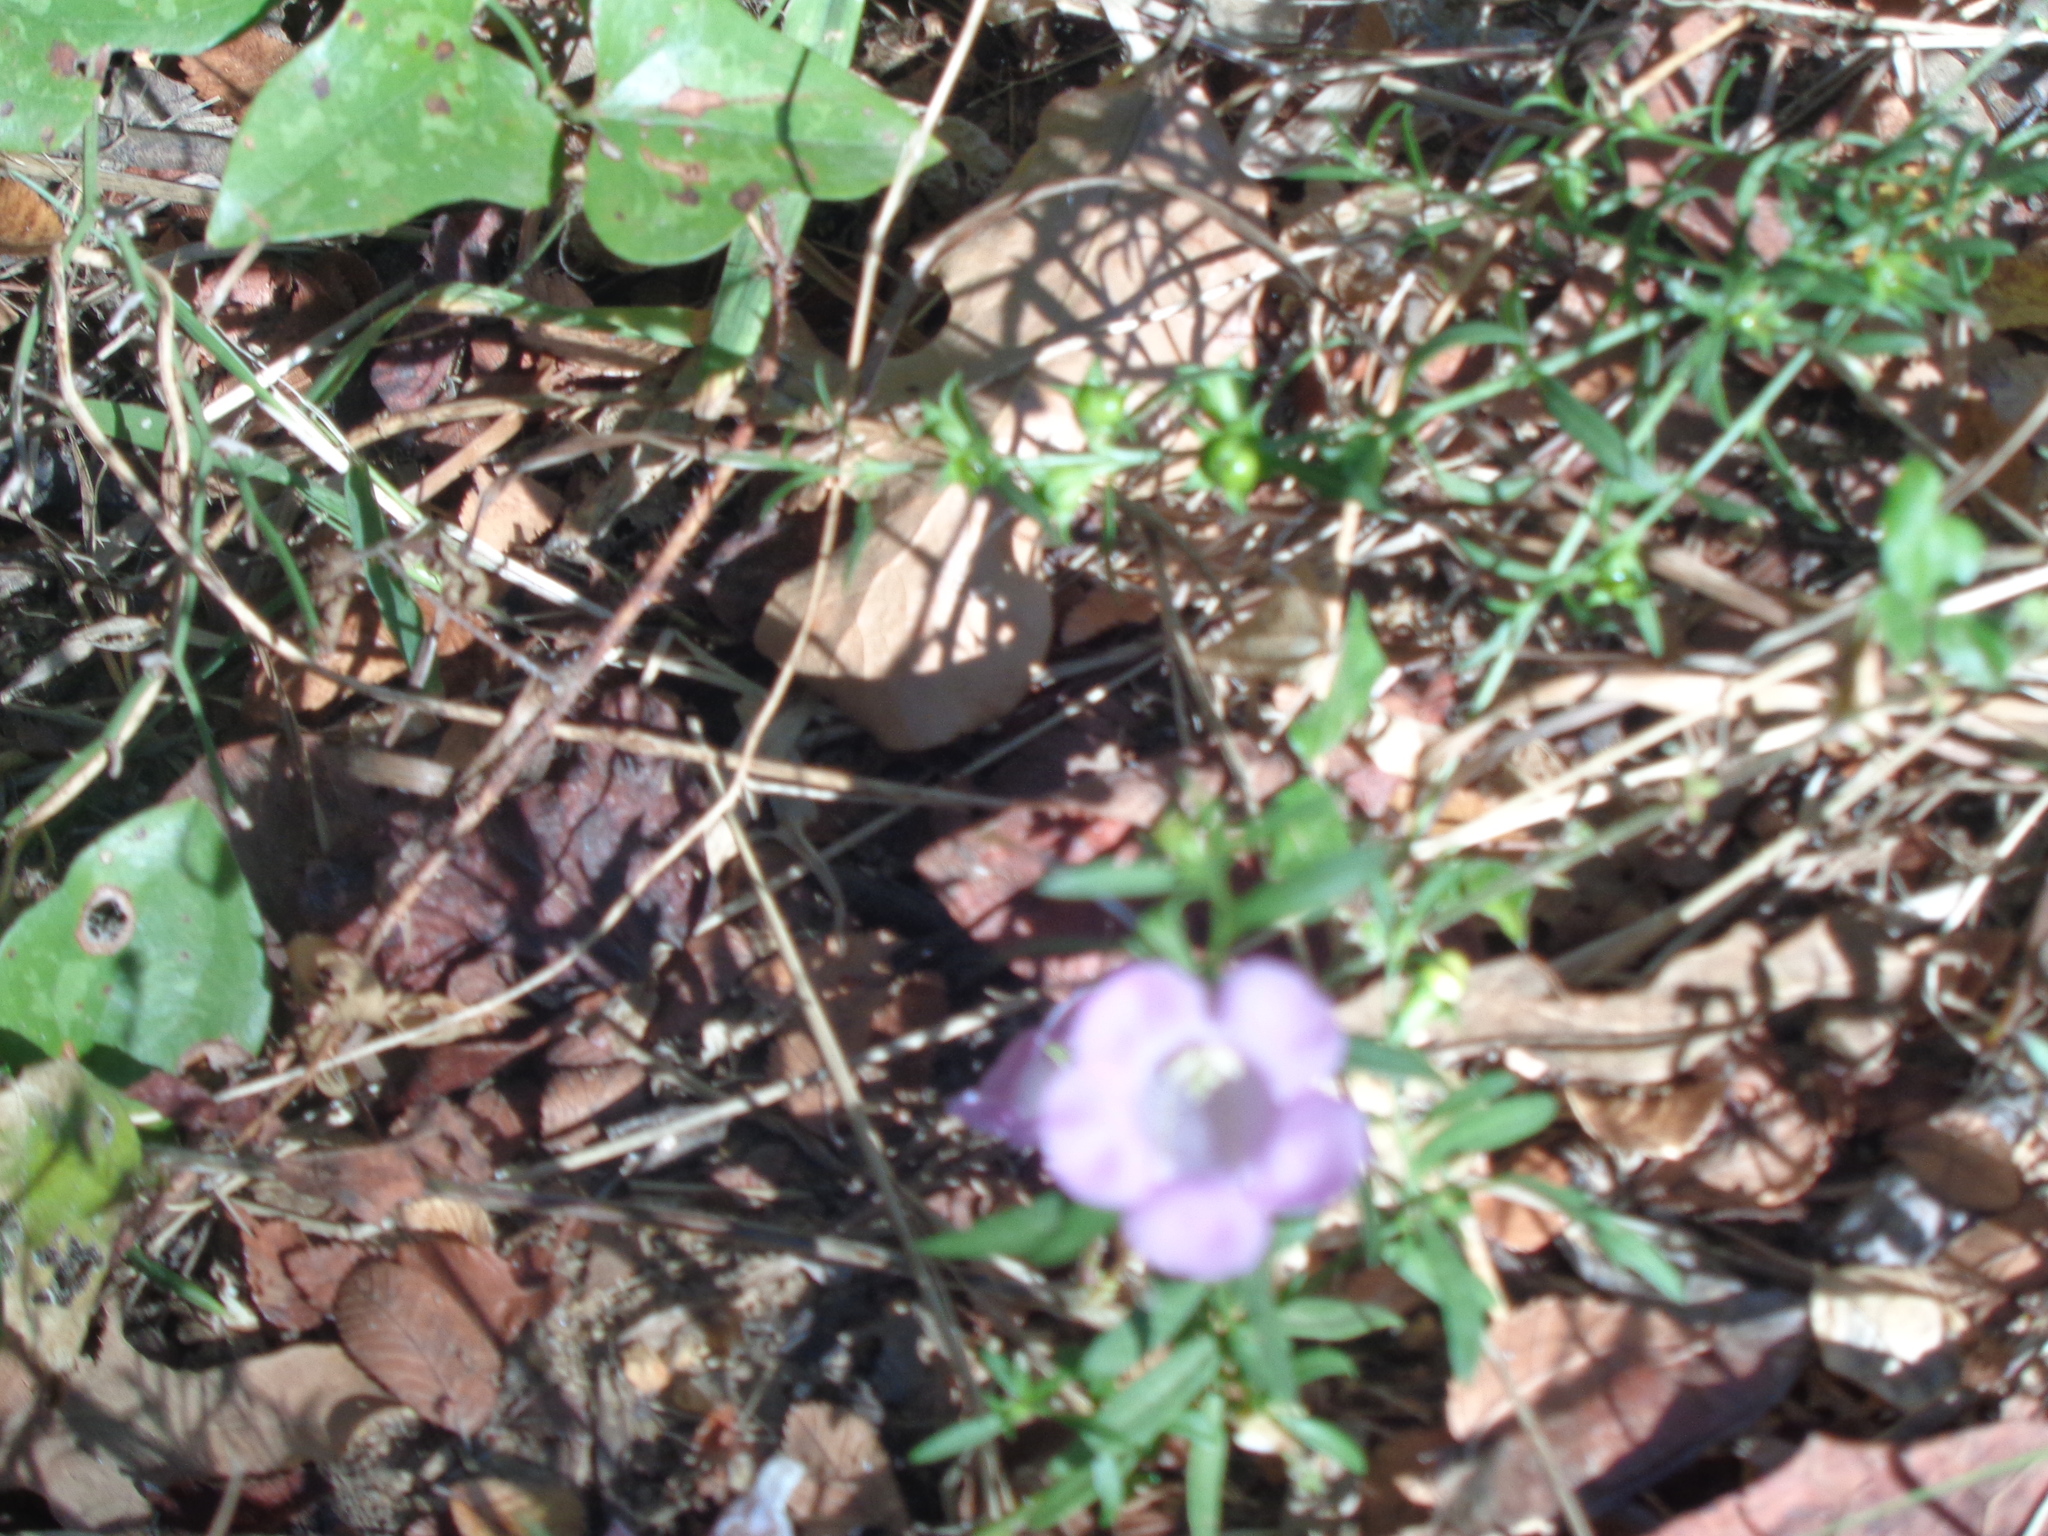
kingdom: Plantae
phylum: Tracheophyta
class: Magnoliopsida
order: Lamiales
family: Orobanchaceae
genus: Agalinis
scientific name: Agalinis heterophylla
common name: Prairie agalinis
